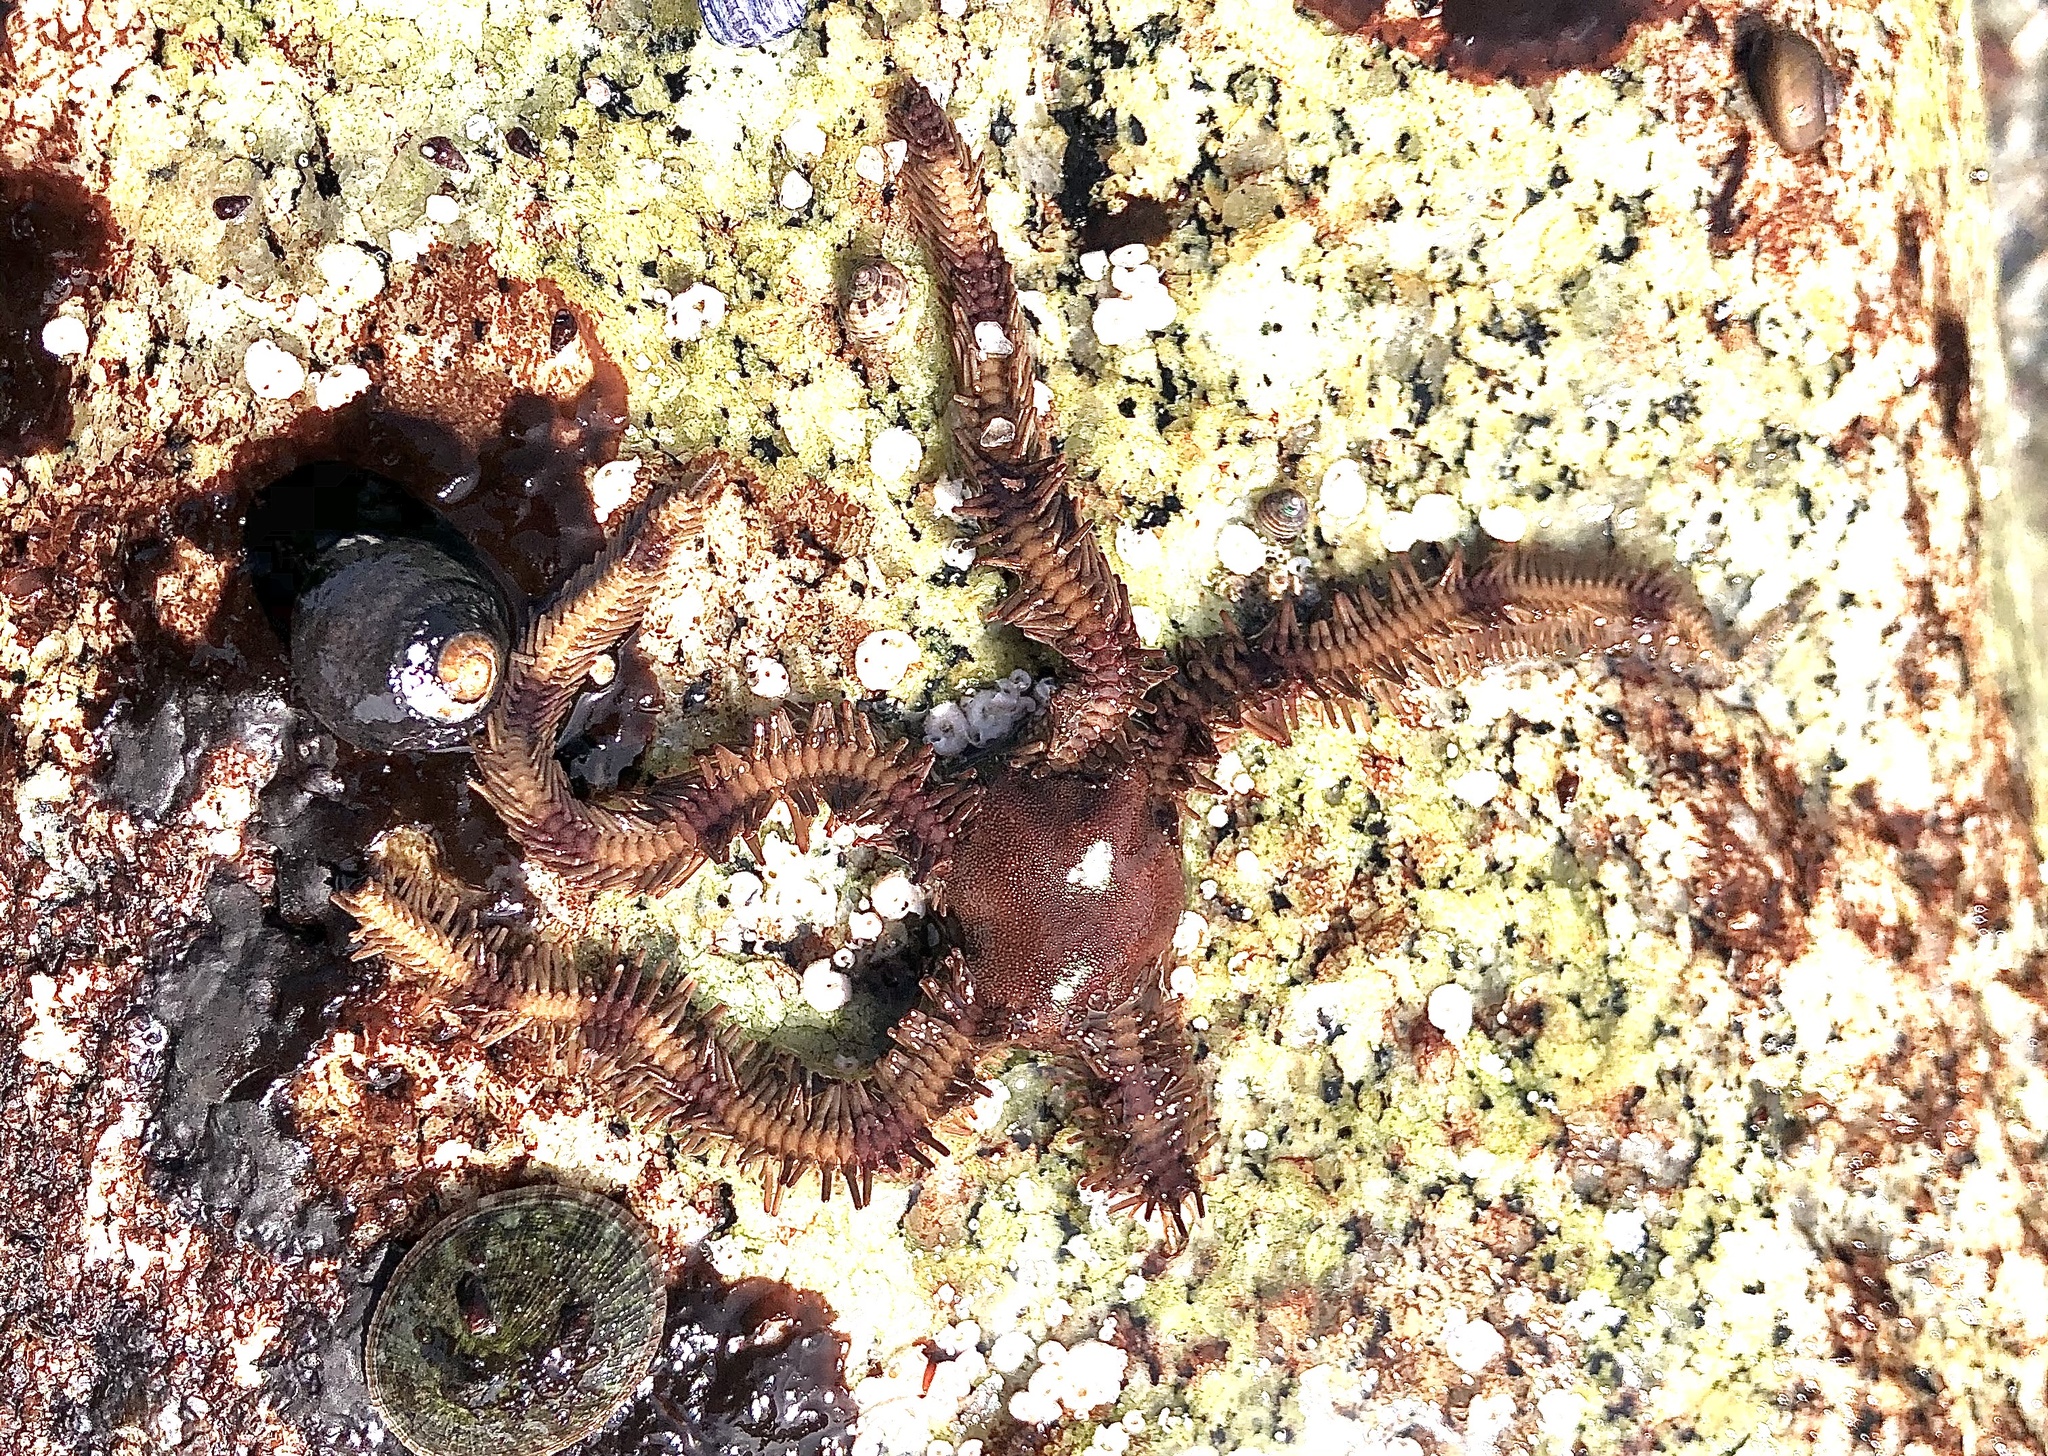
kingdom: Animalia
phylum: Echinodermata
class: Ophiuroidea
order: Ophiacanthida
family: Ophiopteridae
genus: Ophiopteris
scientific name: Ophiopteris papillosa
